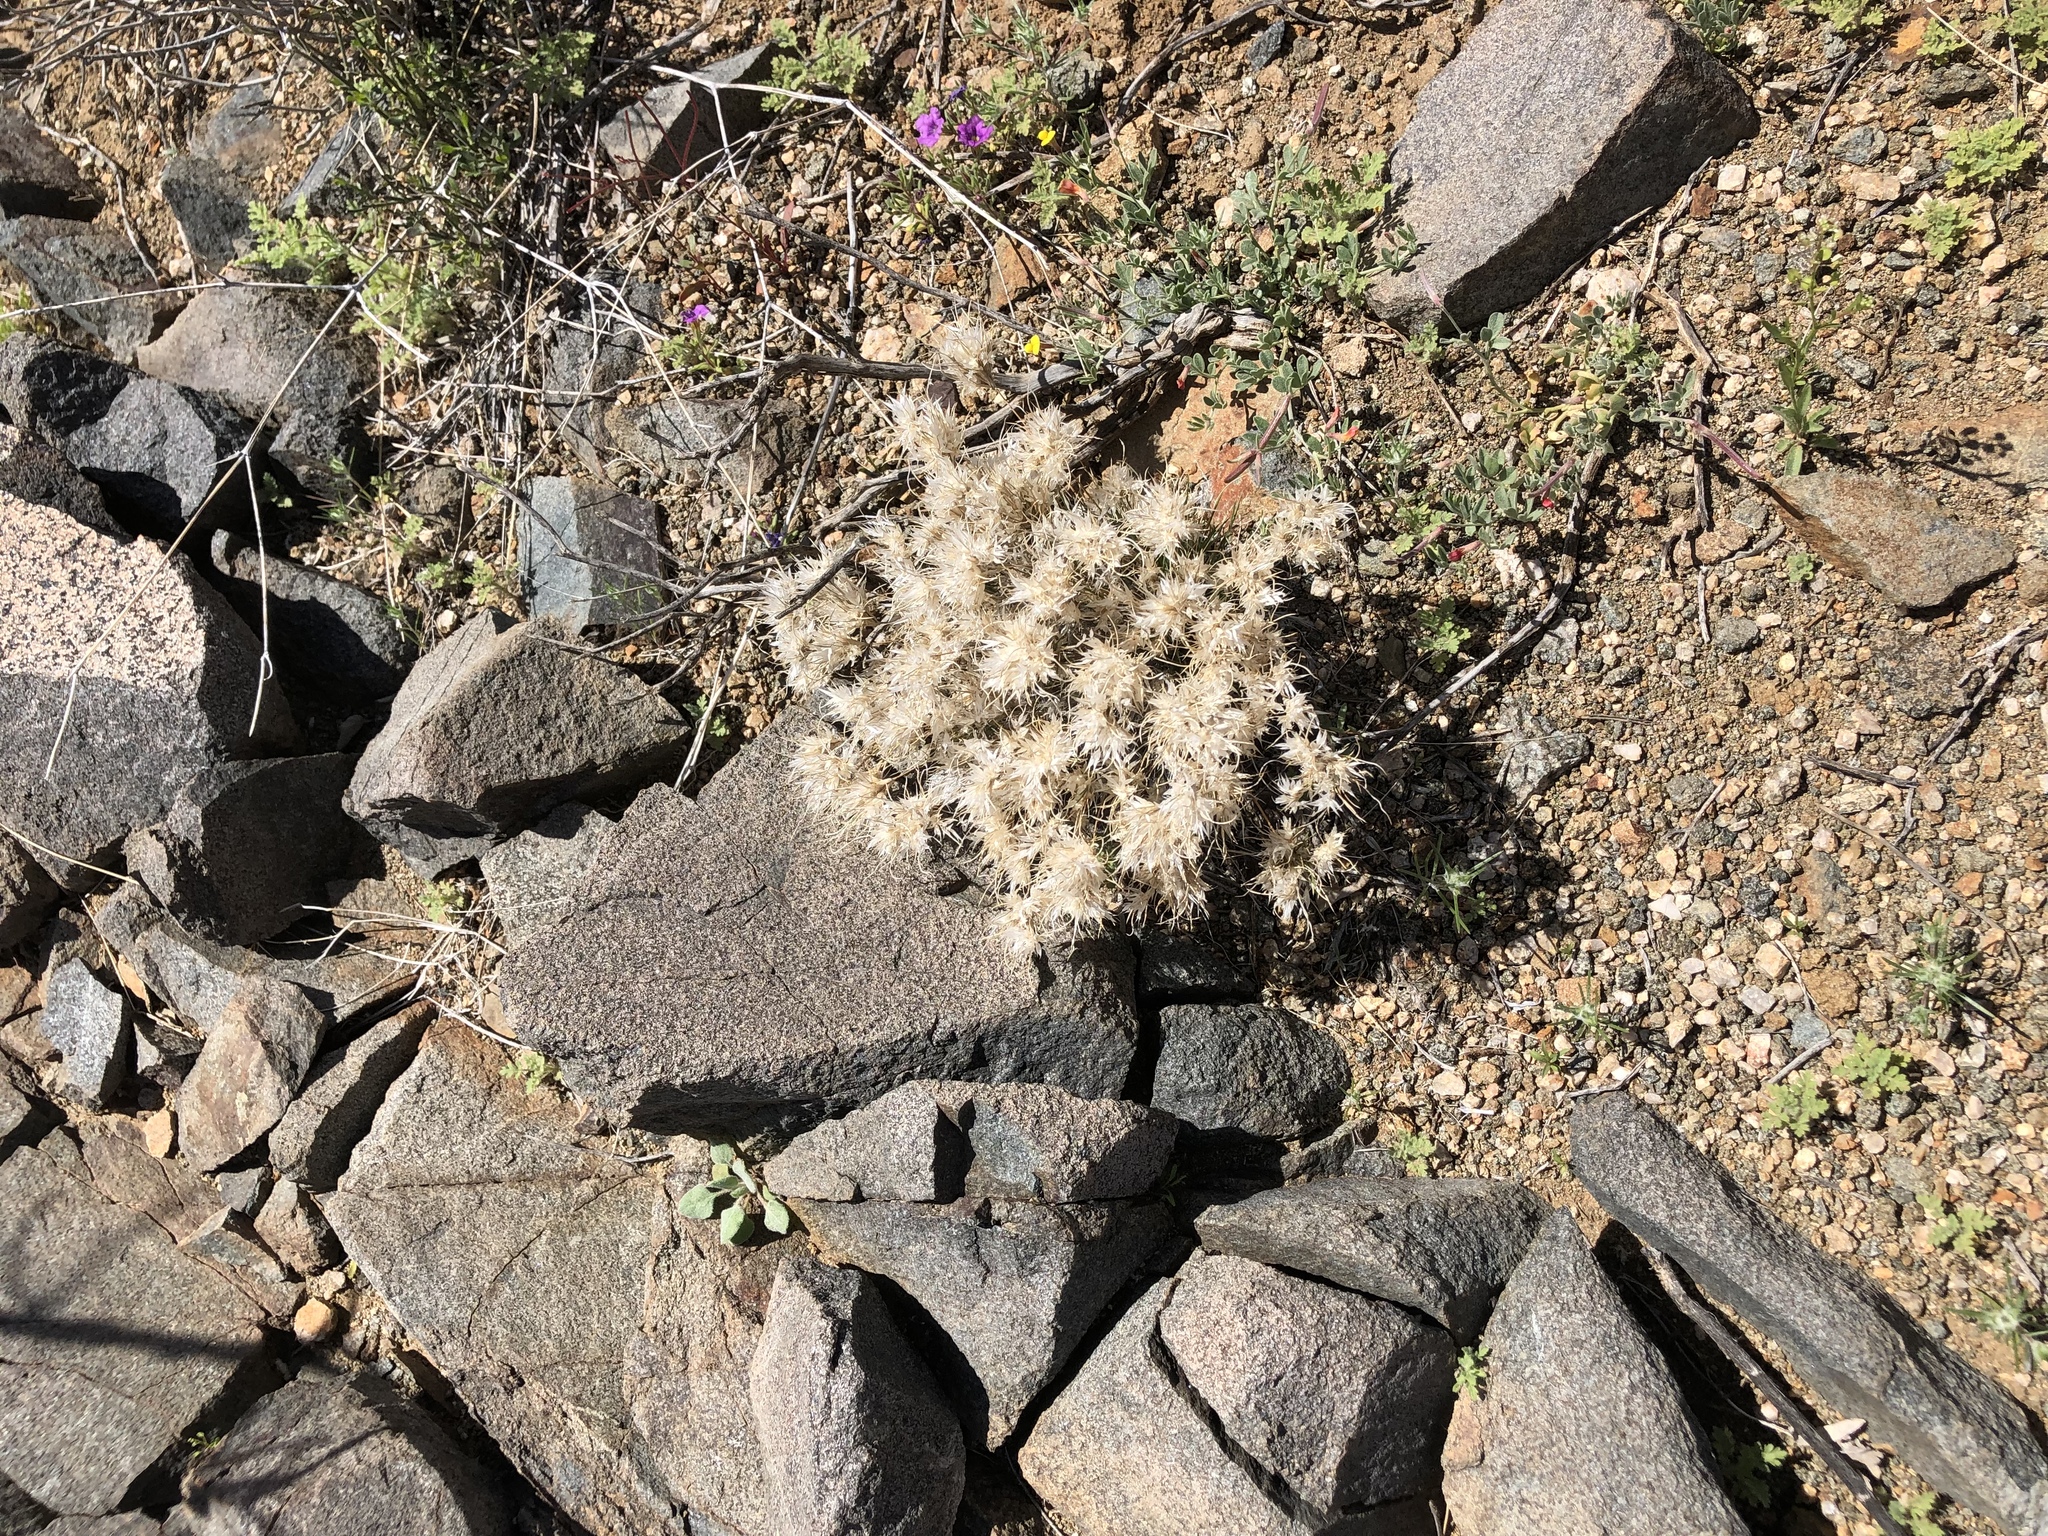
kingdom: Plantae
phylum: Tracheophyta
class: Liliopsida
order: Poales
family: Poaceae
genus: Dasyochloa
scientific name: Dasyochloa pulchella
